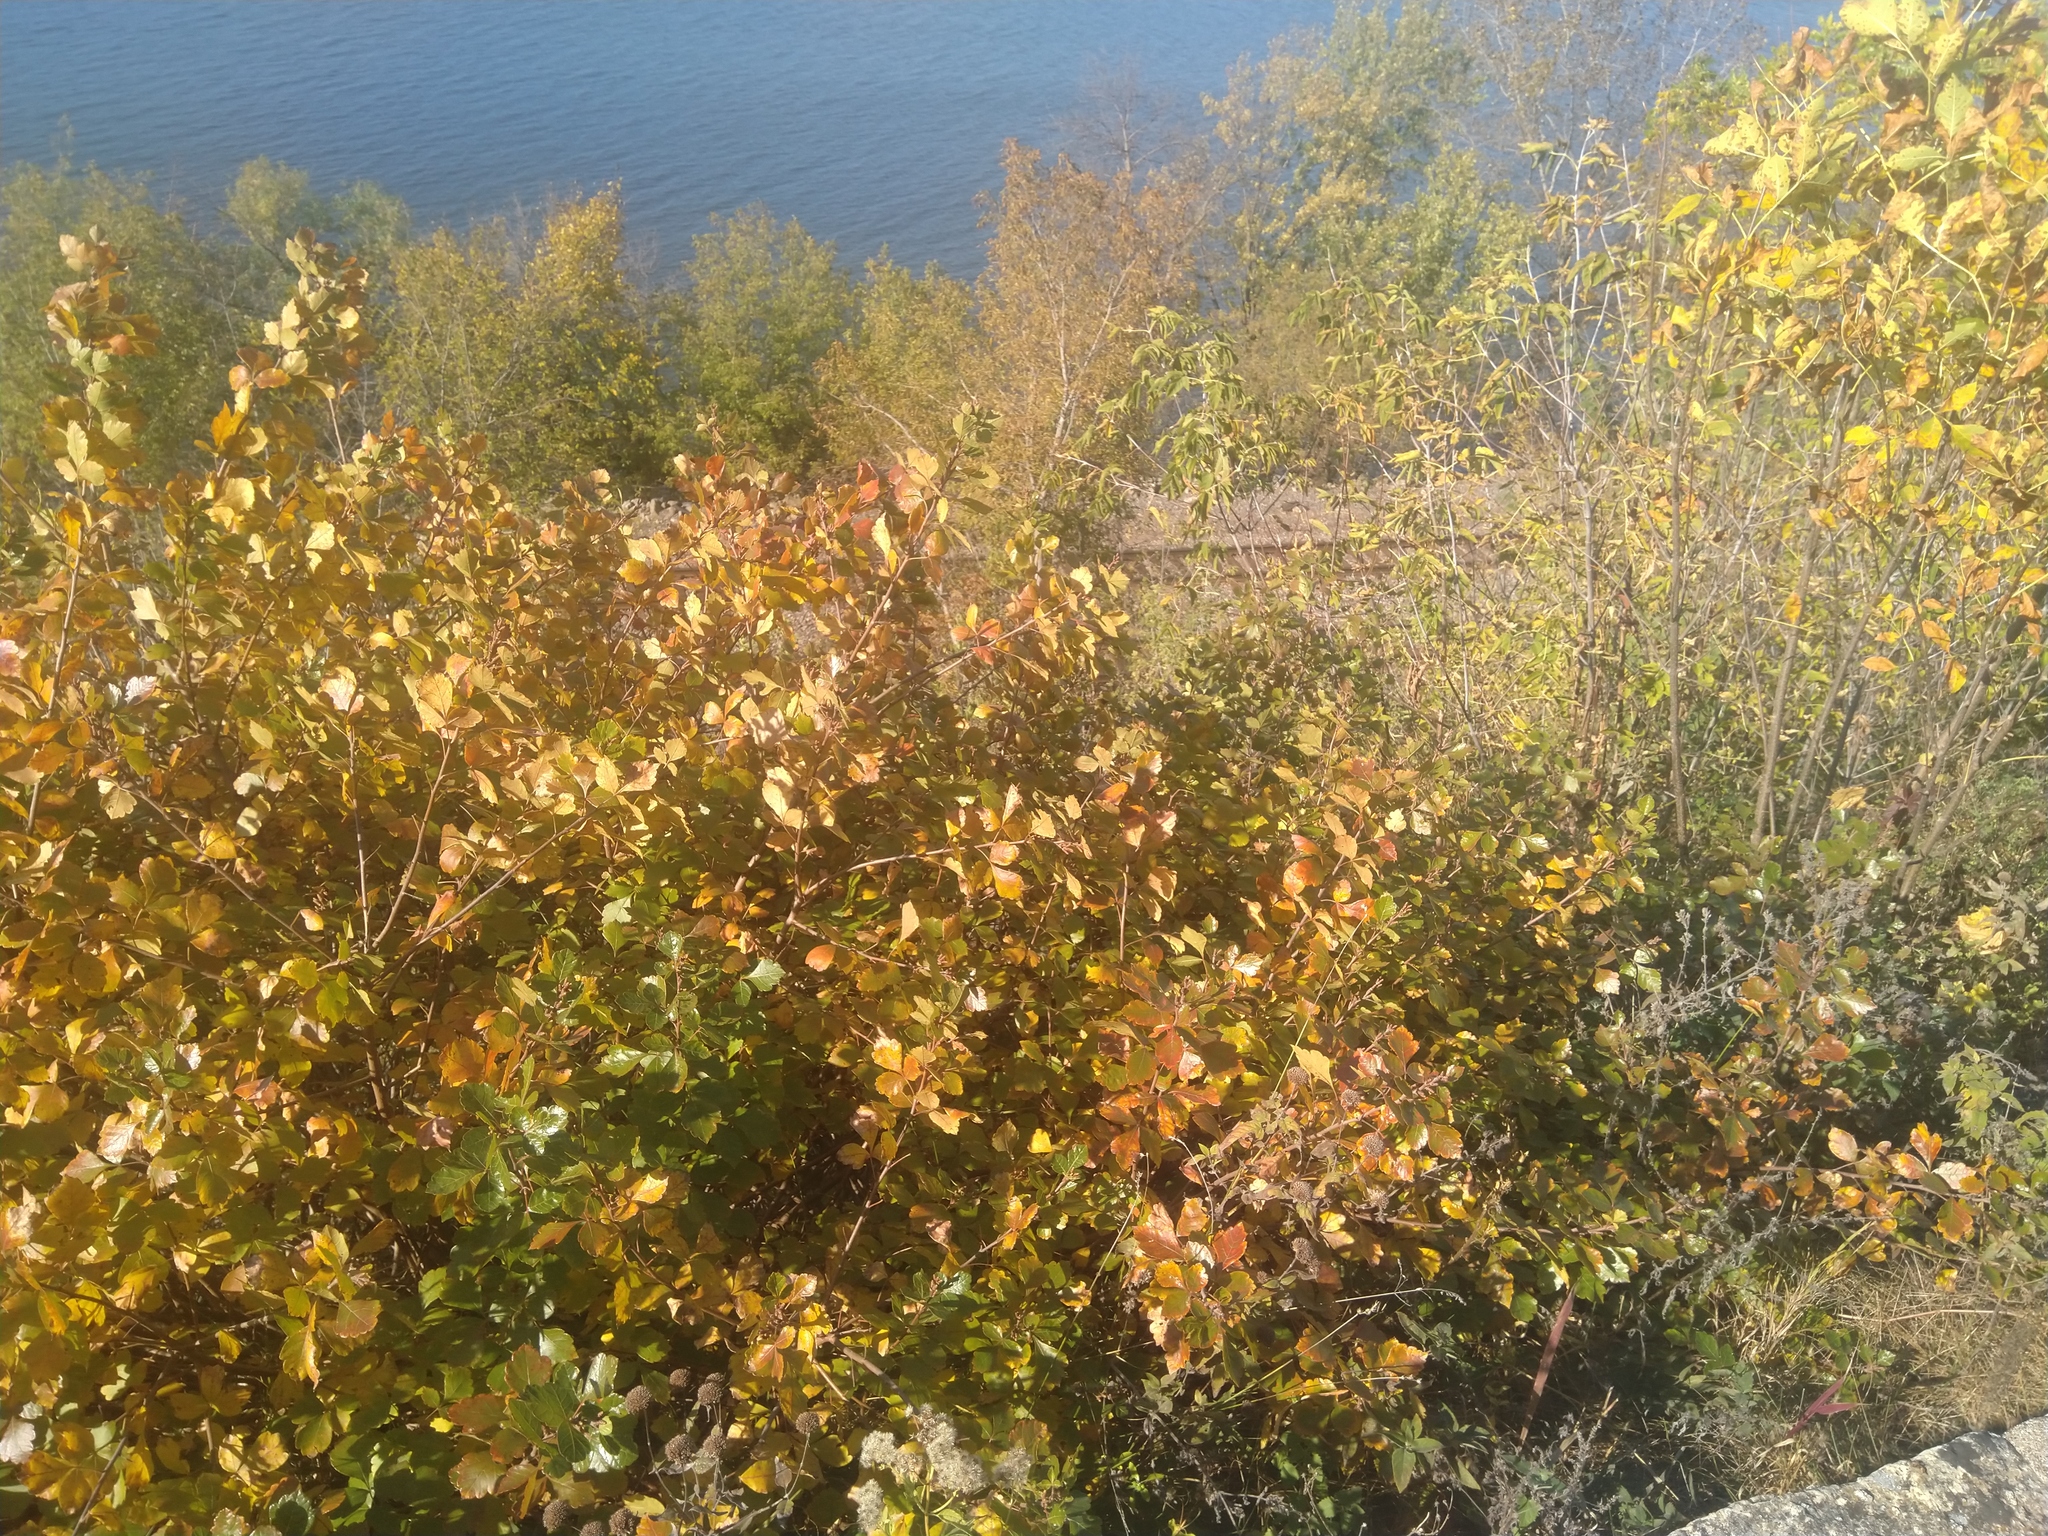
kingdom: Plantae
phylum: Tracheophyta
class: Magnoliopsida
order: Sapindales
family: Anacardiaceae
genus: Rhus
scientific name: Rhus aromatica
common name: Aromatic sumac
